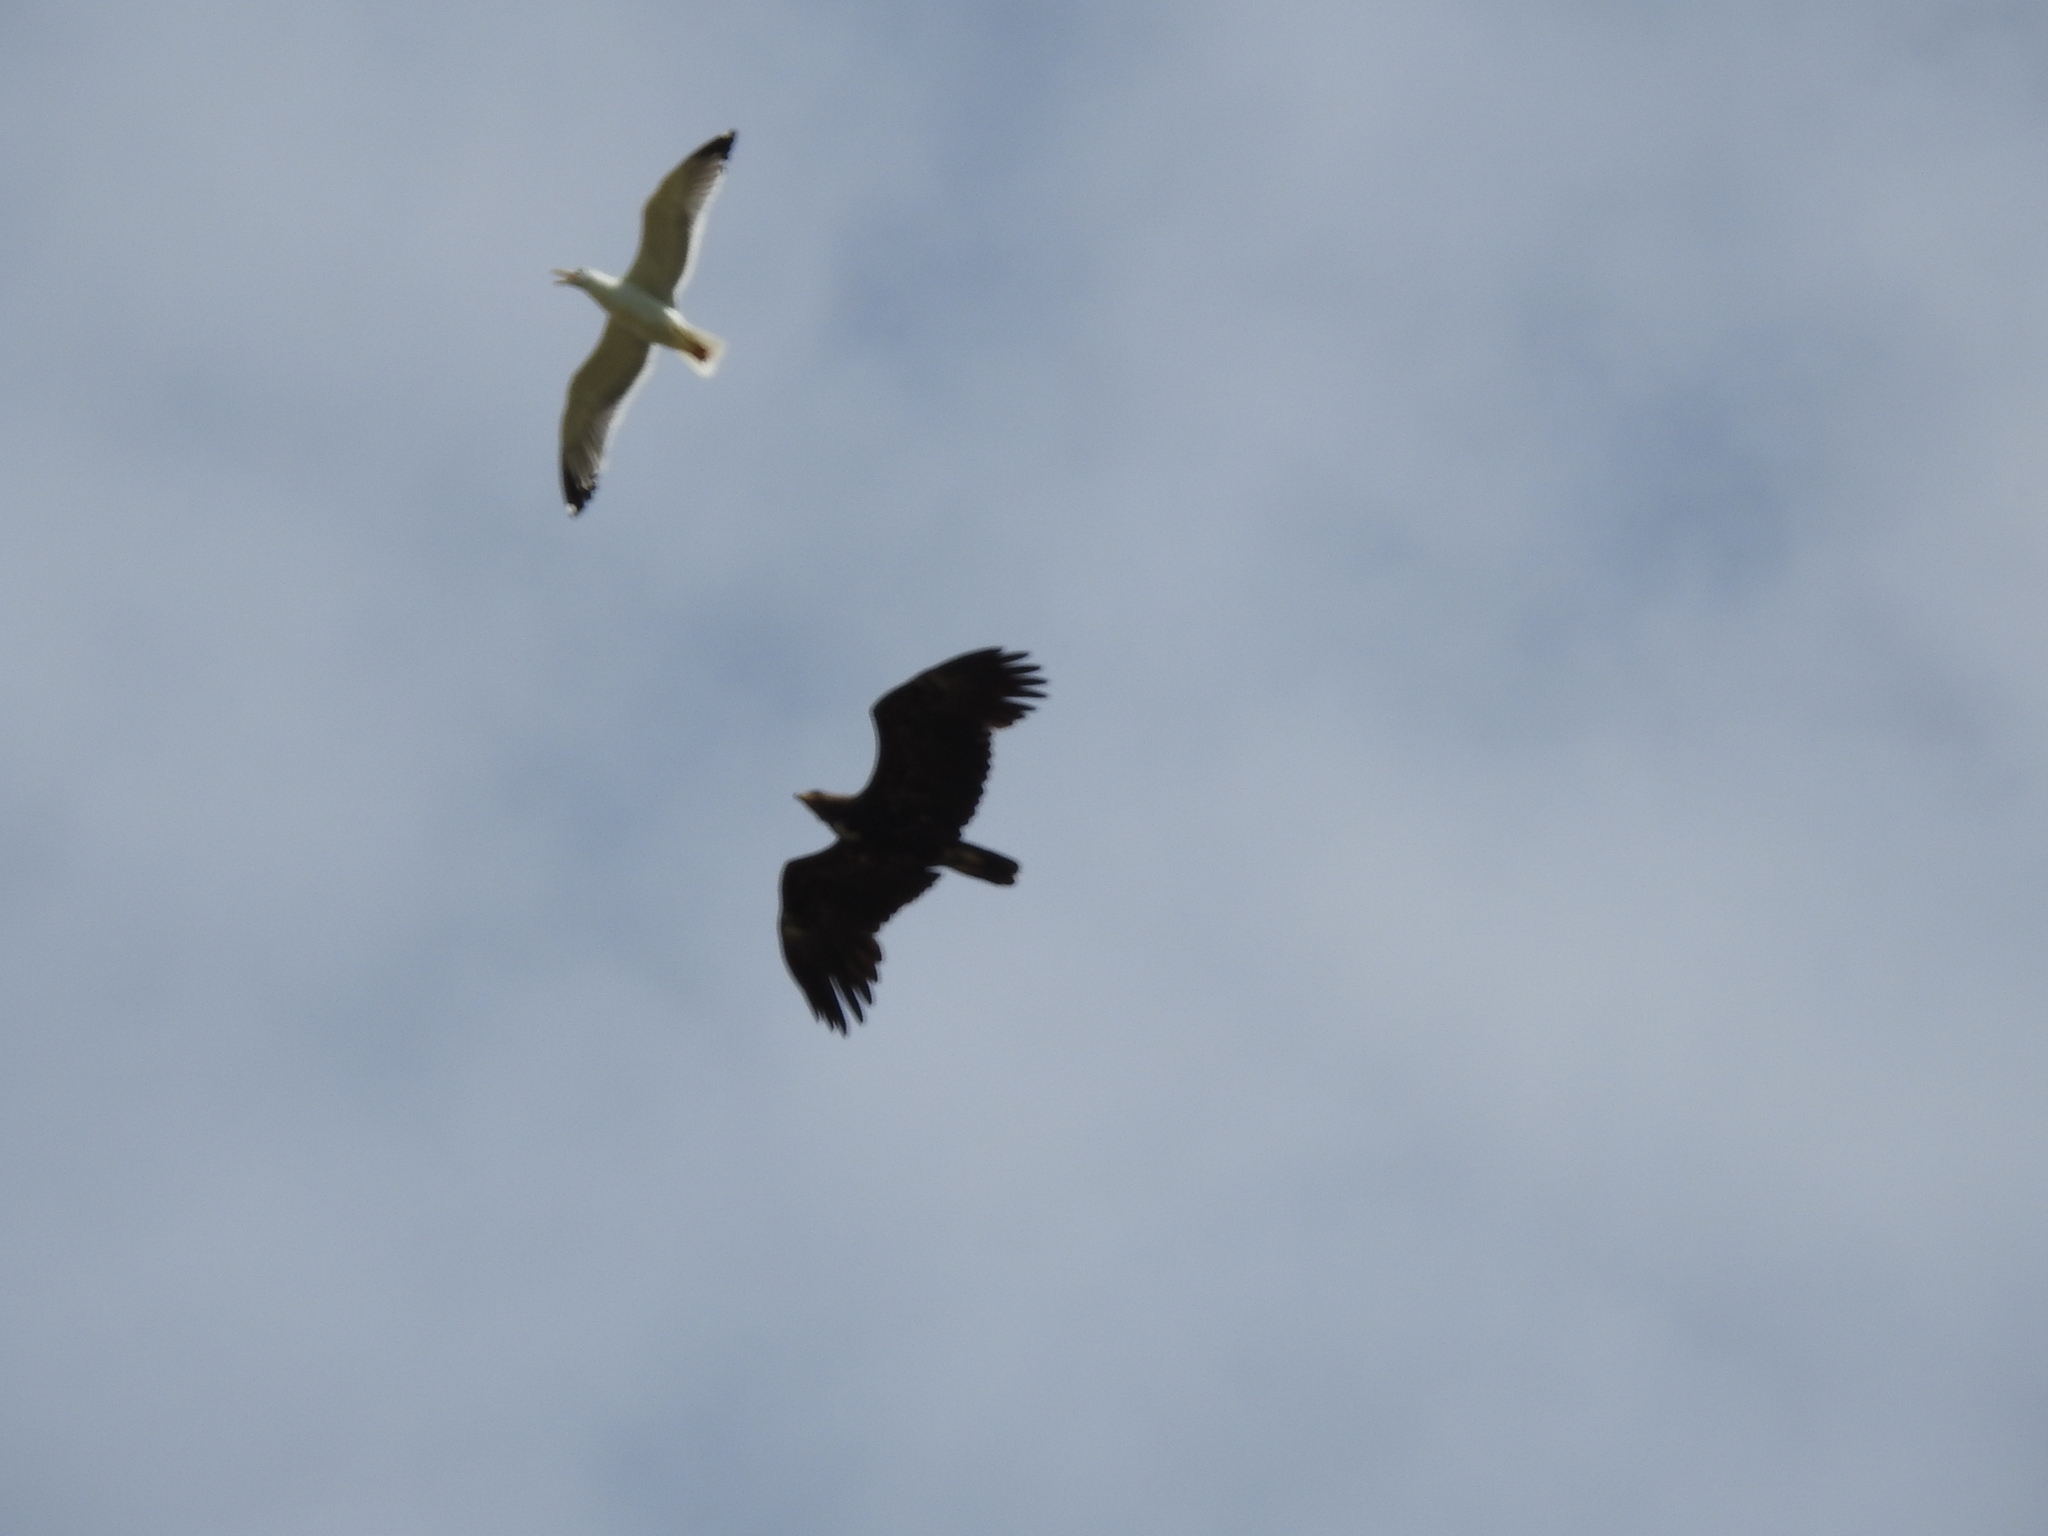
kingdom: Animalia
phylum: Chordata
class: Aves
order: Accipitriformes
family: Accipitridae
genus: Haliaeetus
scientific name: Haliaeetus albicilla
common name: White-tailed eagle
